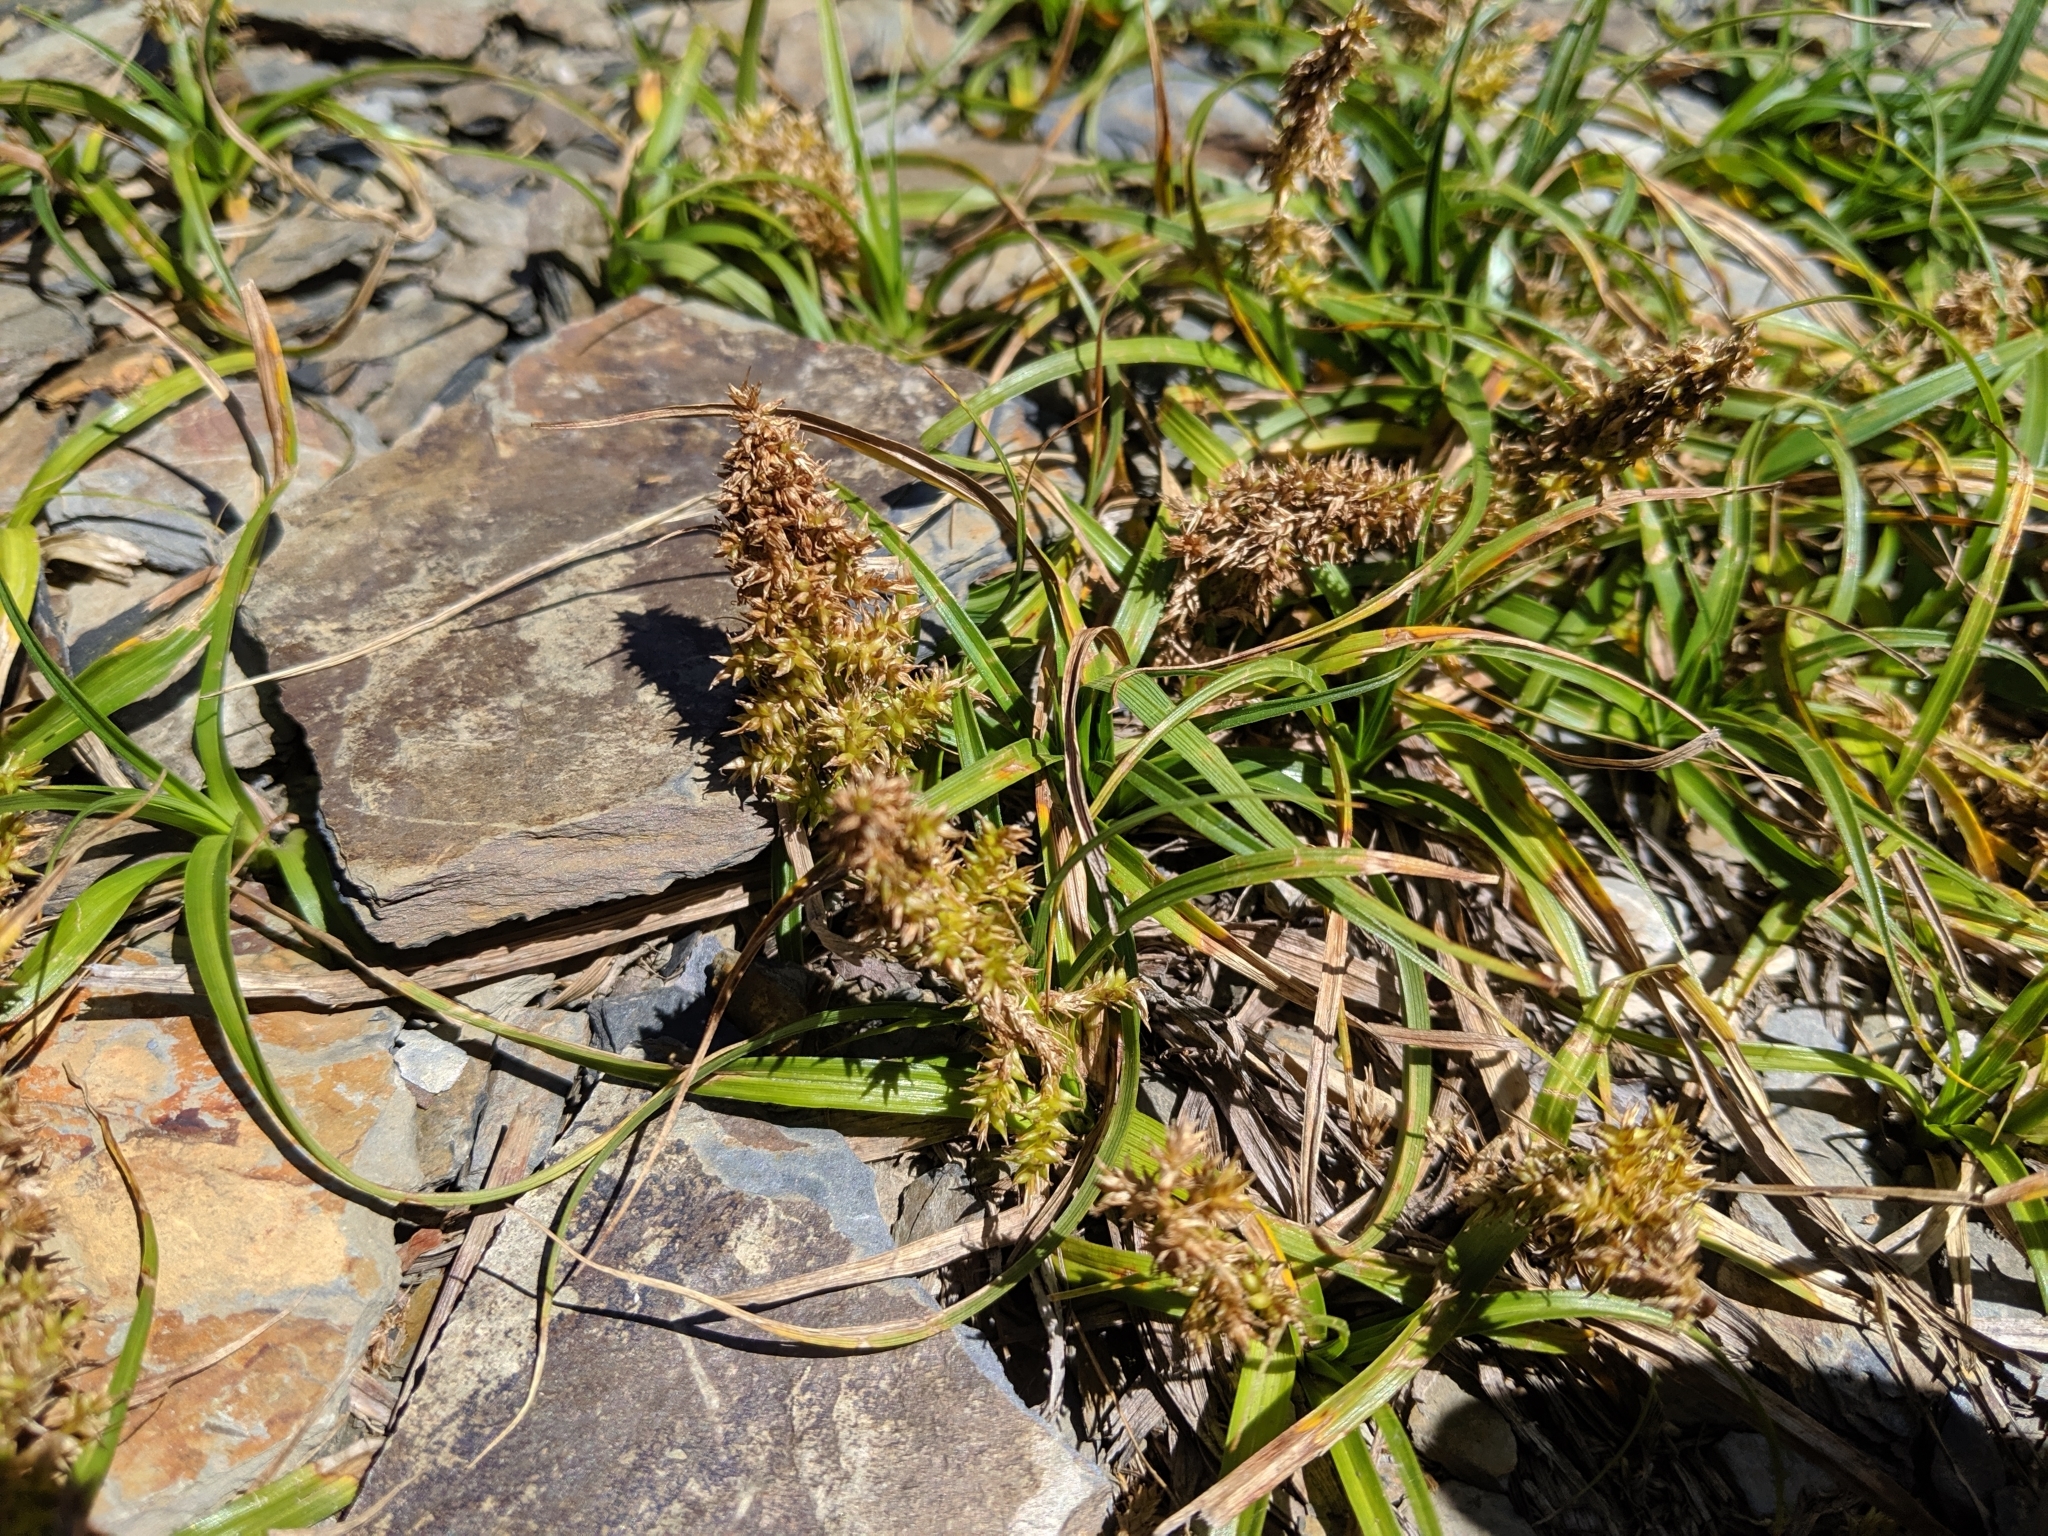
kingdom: Plantae
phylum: Tracheophyta
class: Liliopsida
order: Poales
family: Cyperaceae
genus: Carex
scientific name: Carex satsumensis
